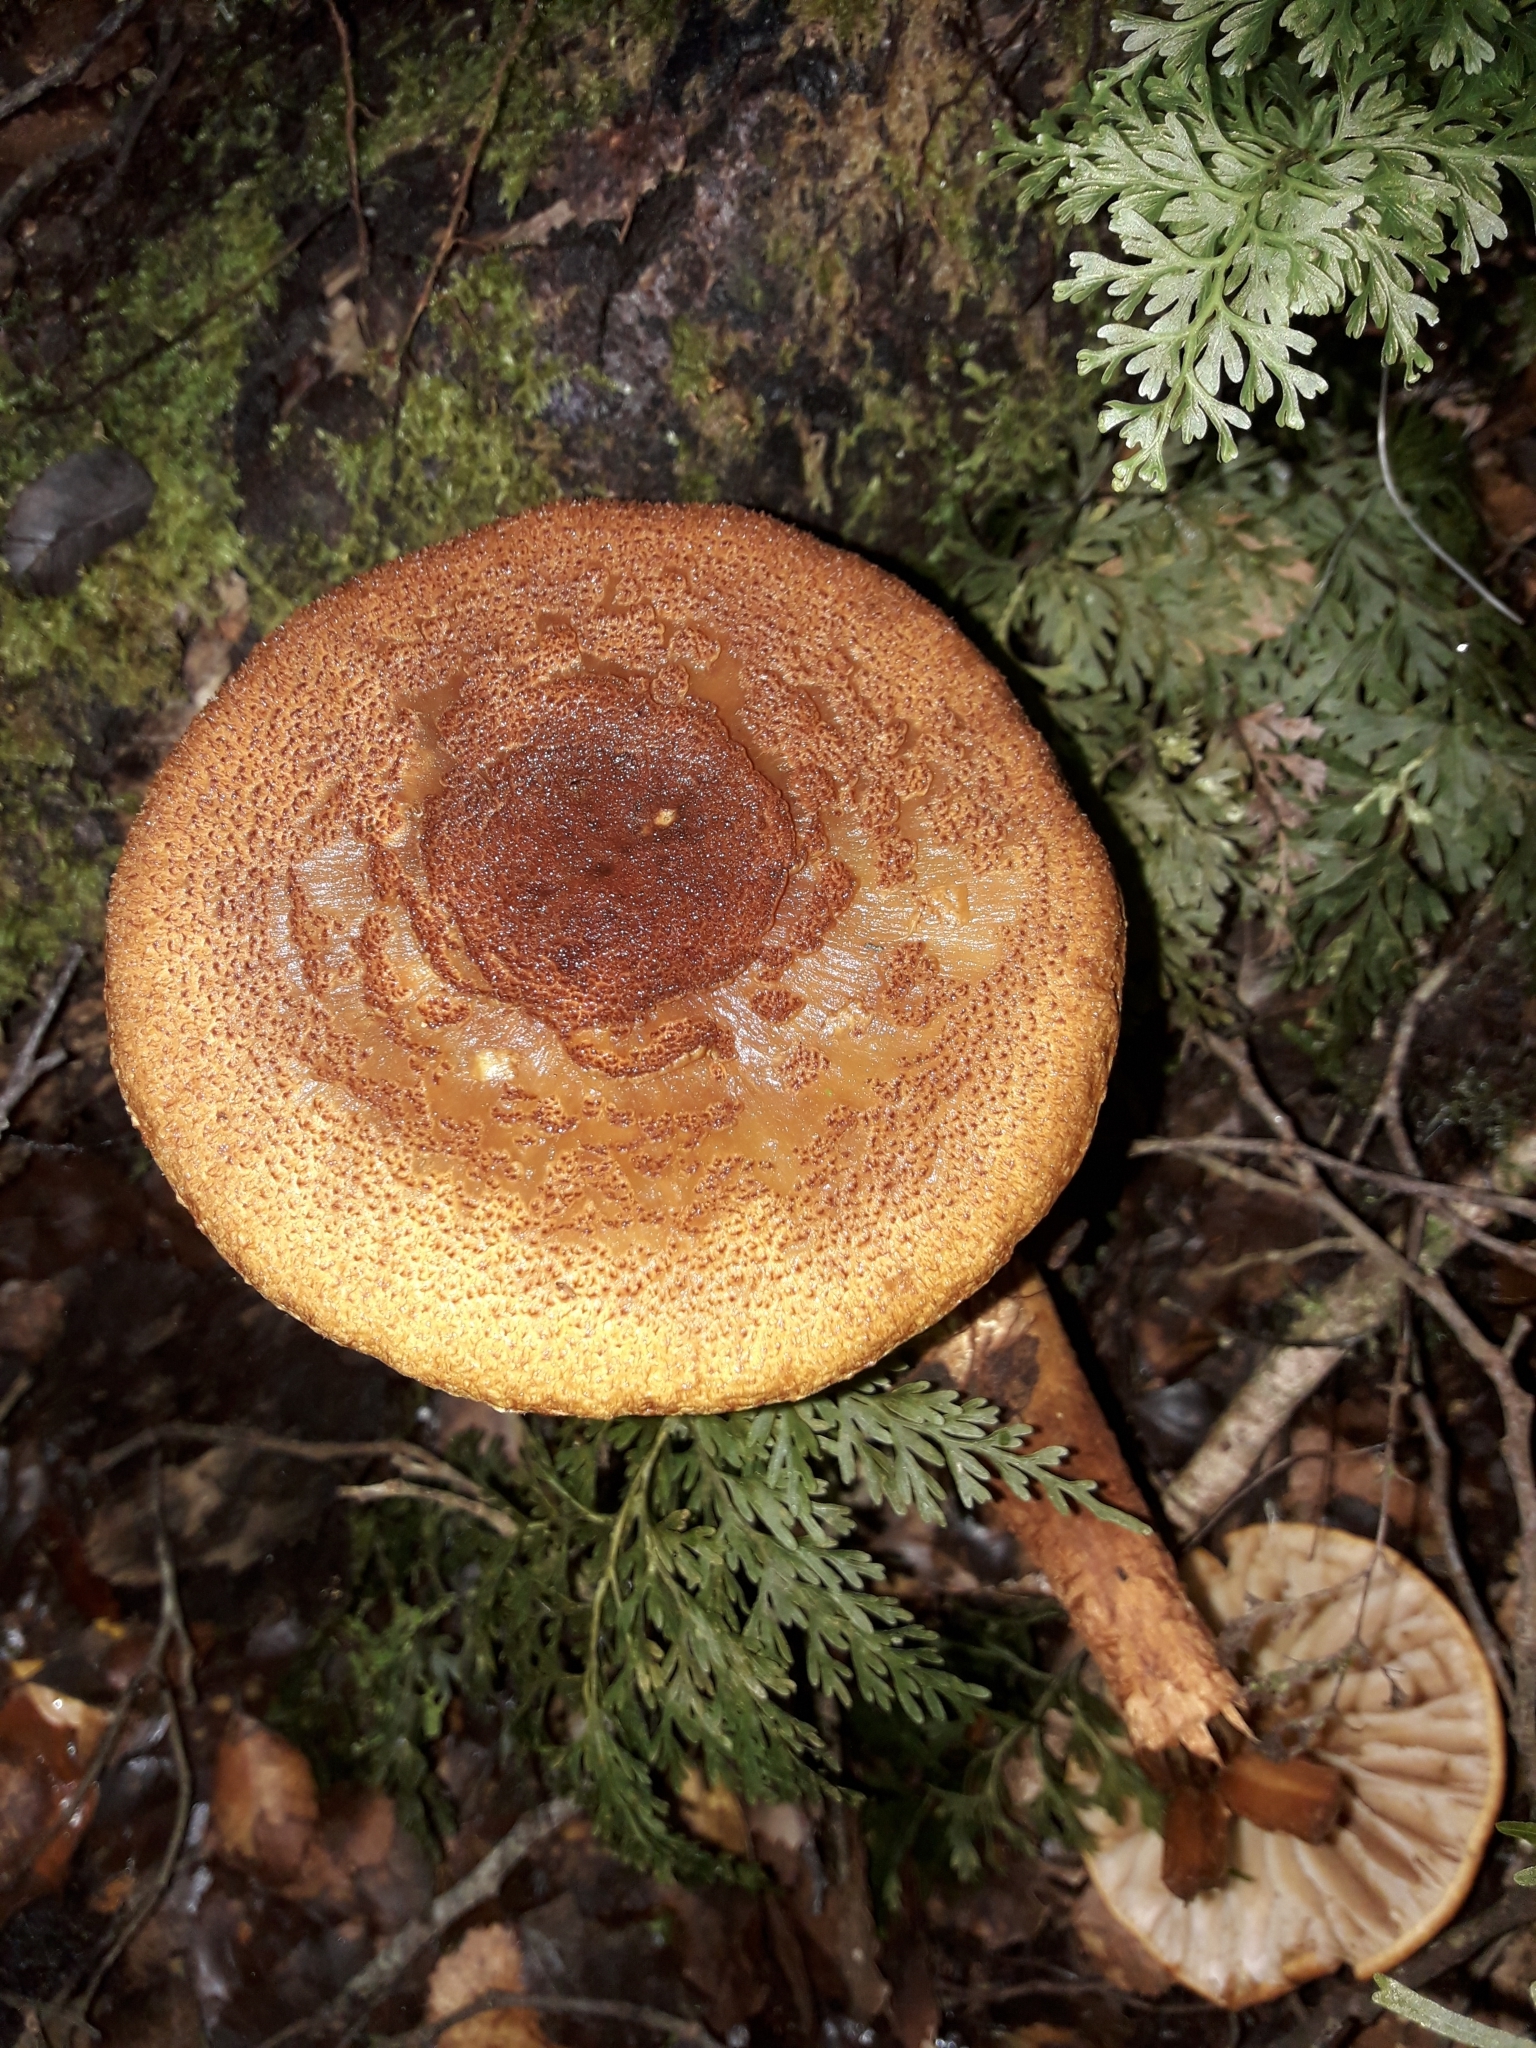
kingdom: Fungi
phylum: Basidiomycota
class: Agaricomycetes
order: Agaricales
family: Cortinariaceae
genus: Thaxterogaster
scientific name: Thaxterogaster castoreus
